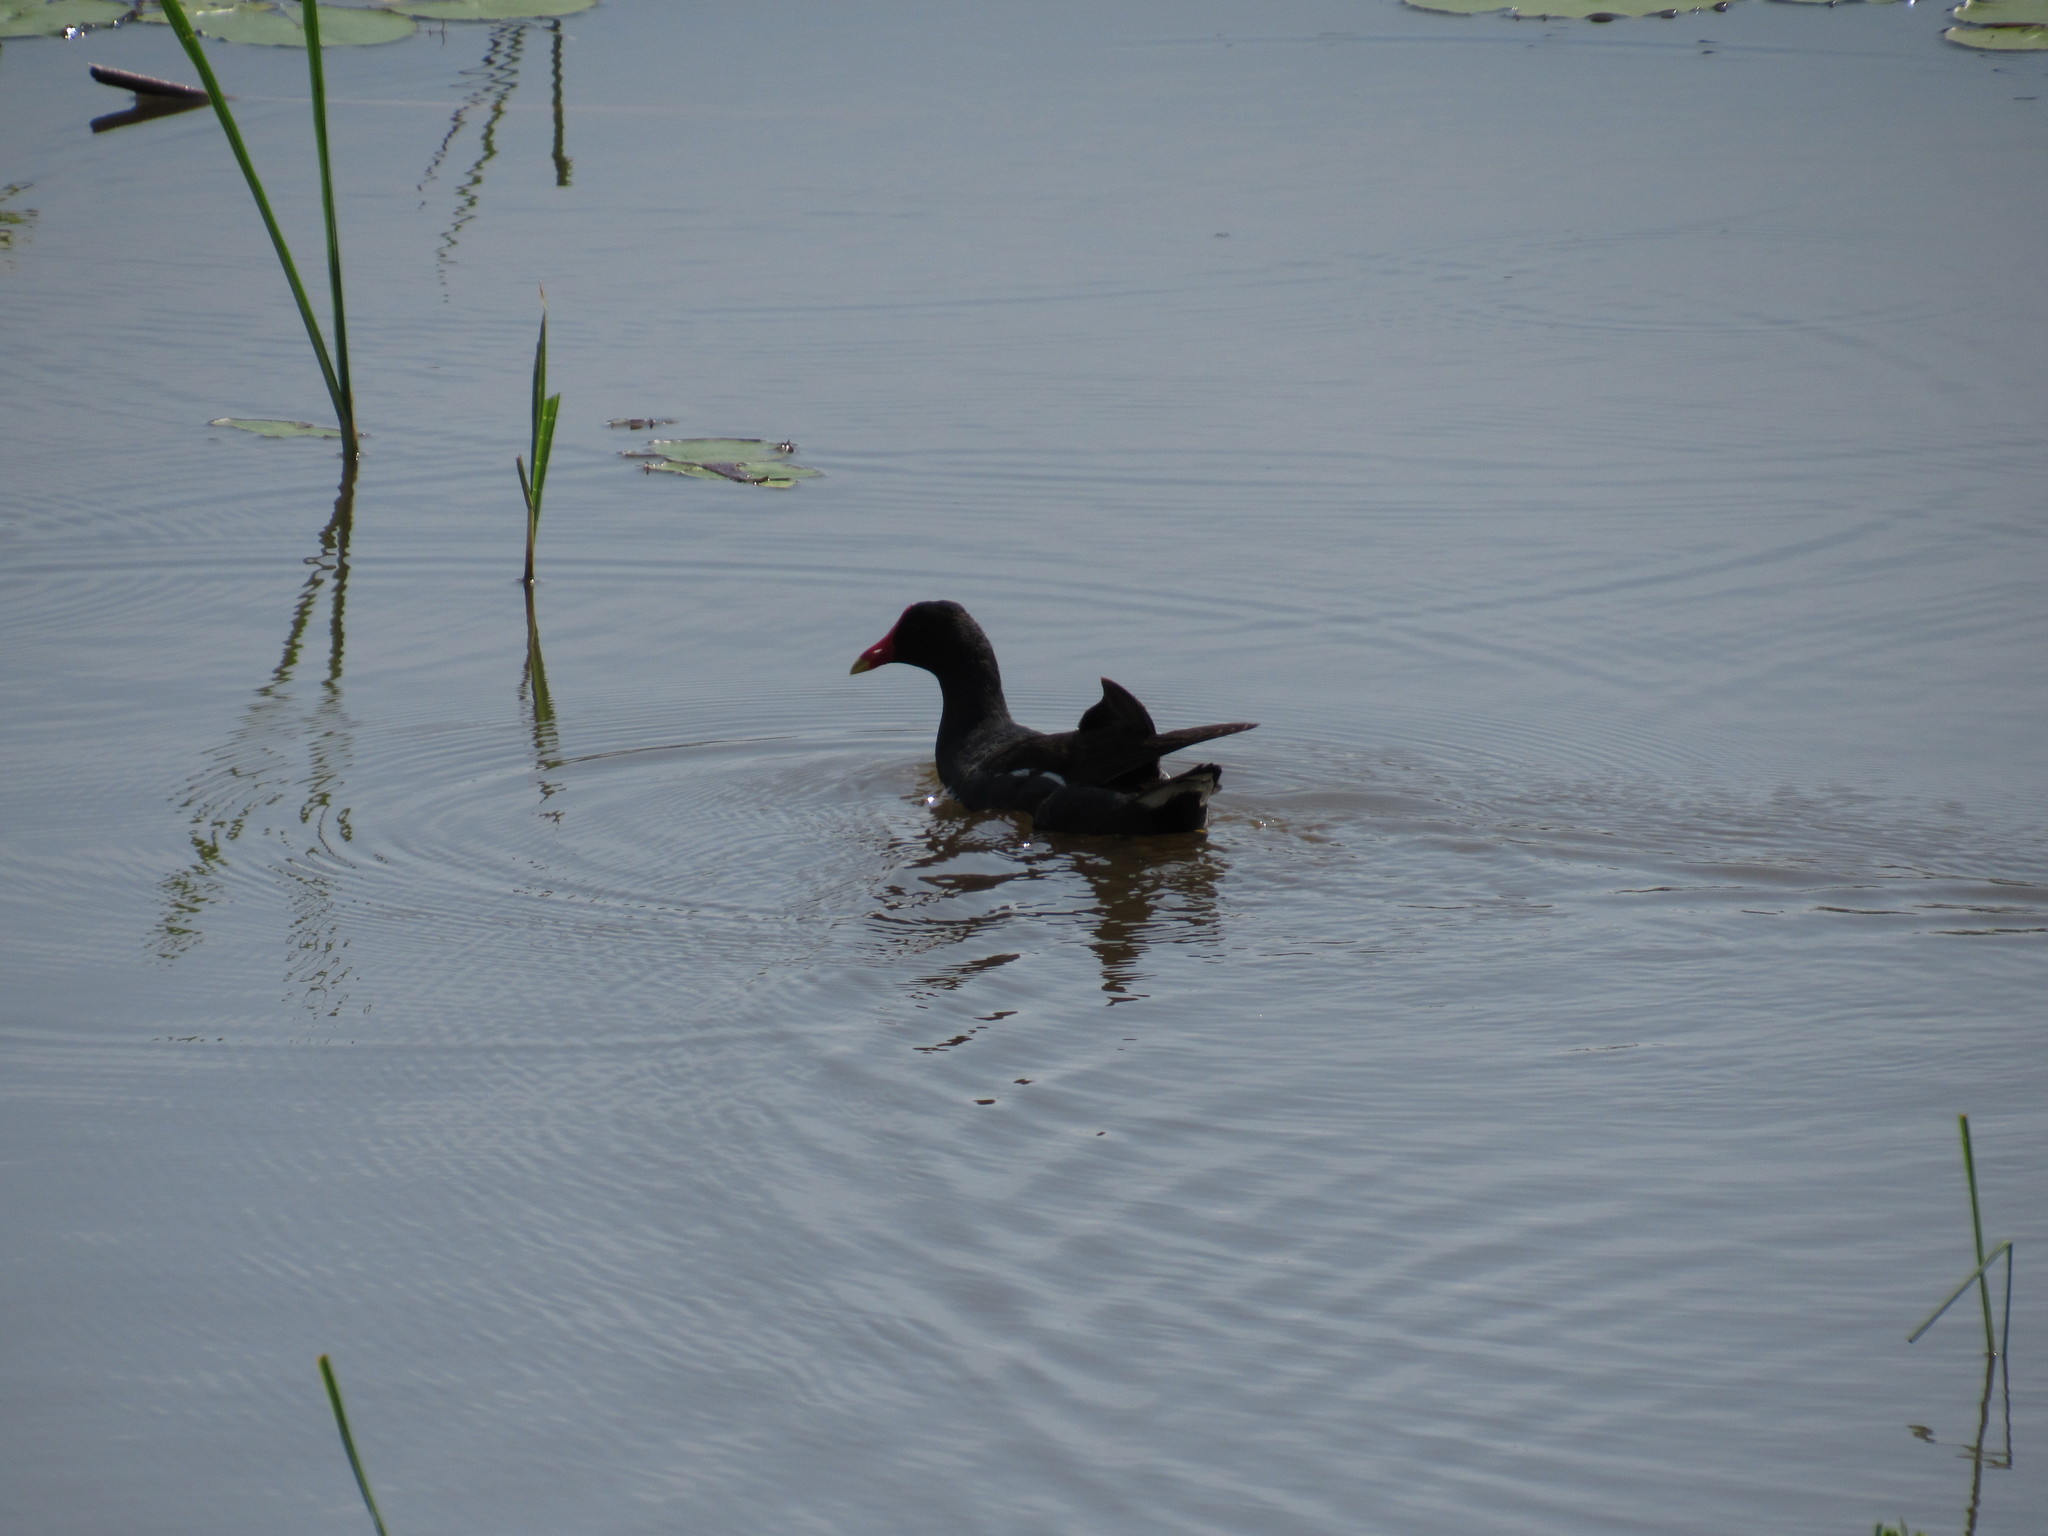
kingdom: Animalia
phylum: Chordata
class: Aves
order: Gruiformes
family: Rallidae
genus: Gallinula
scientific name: Gallinula chloropus
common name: Common moorhen
